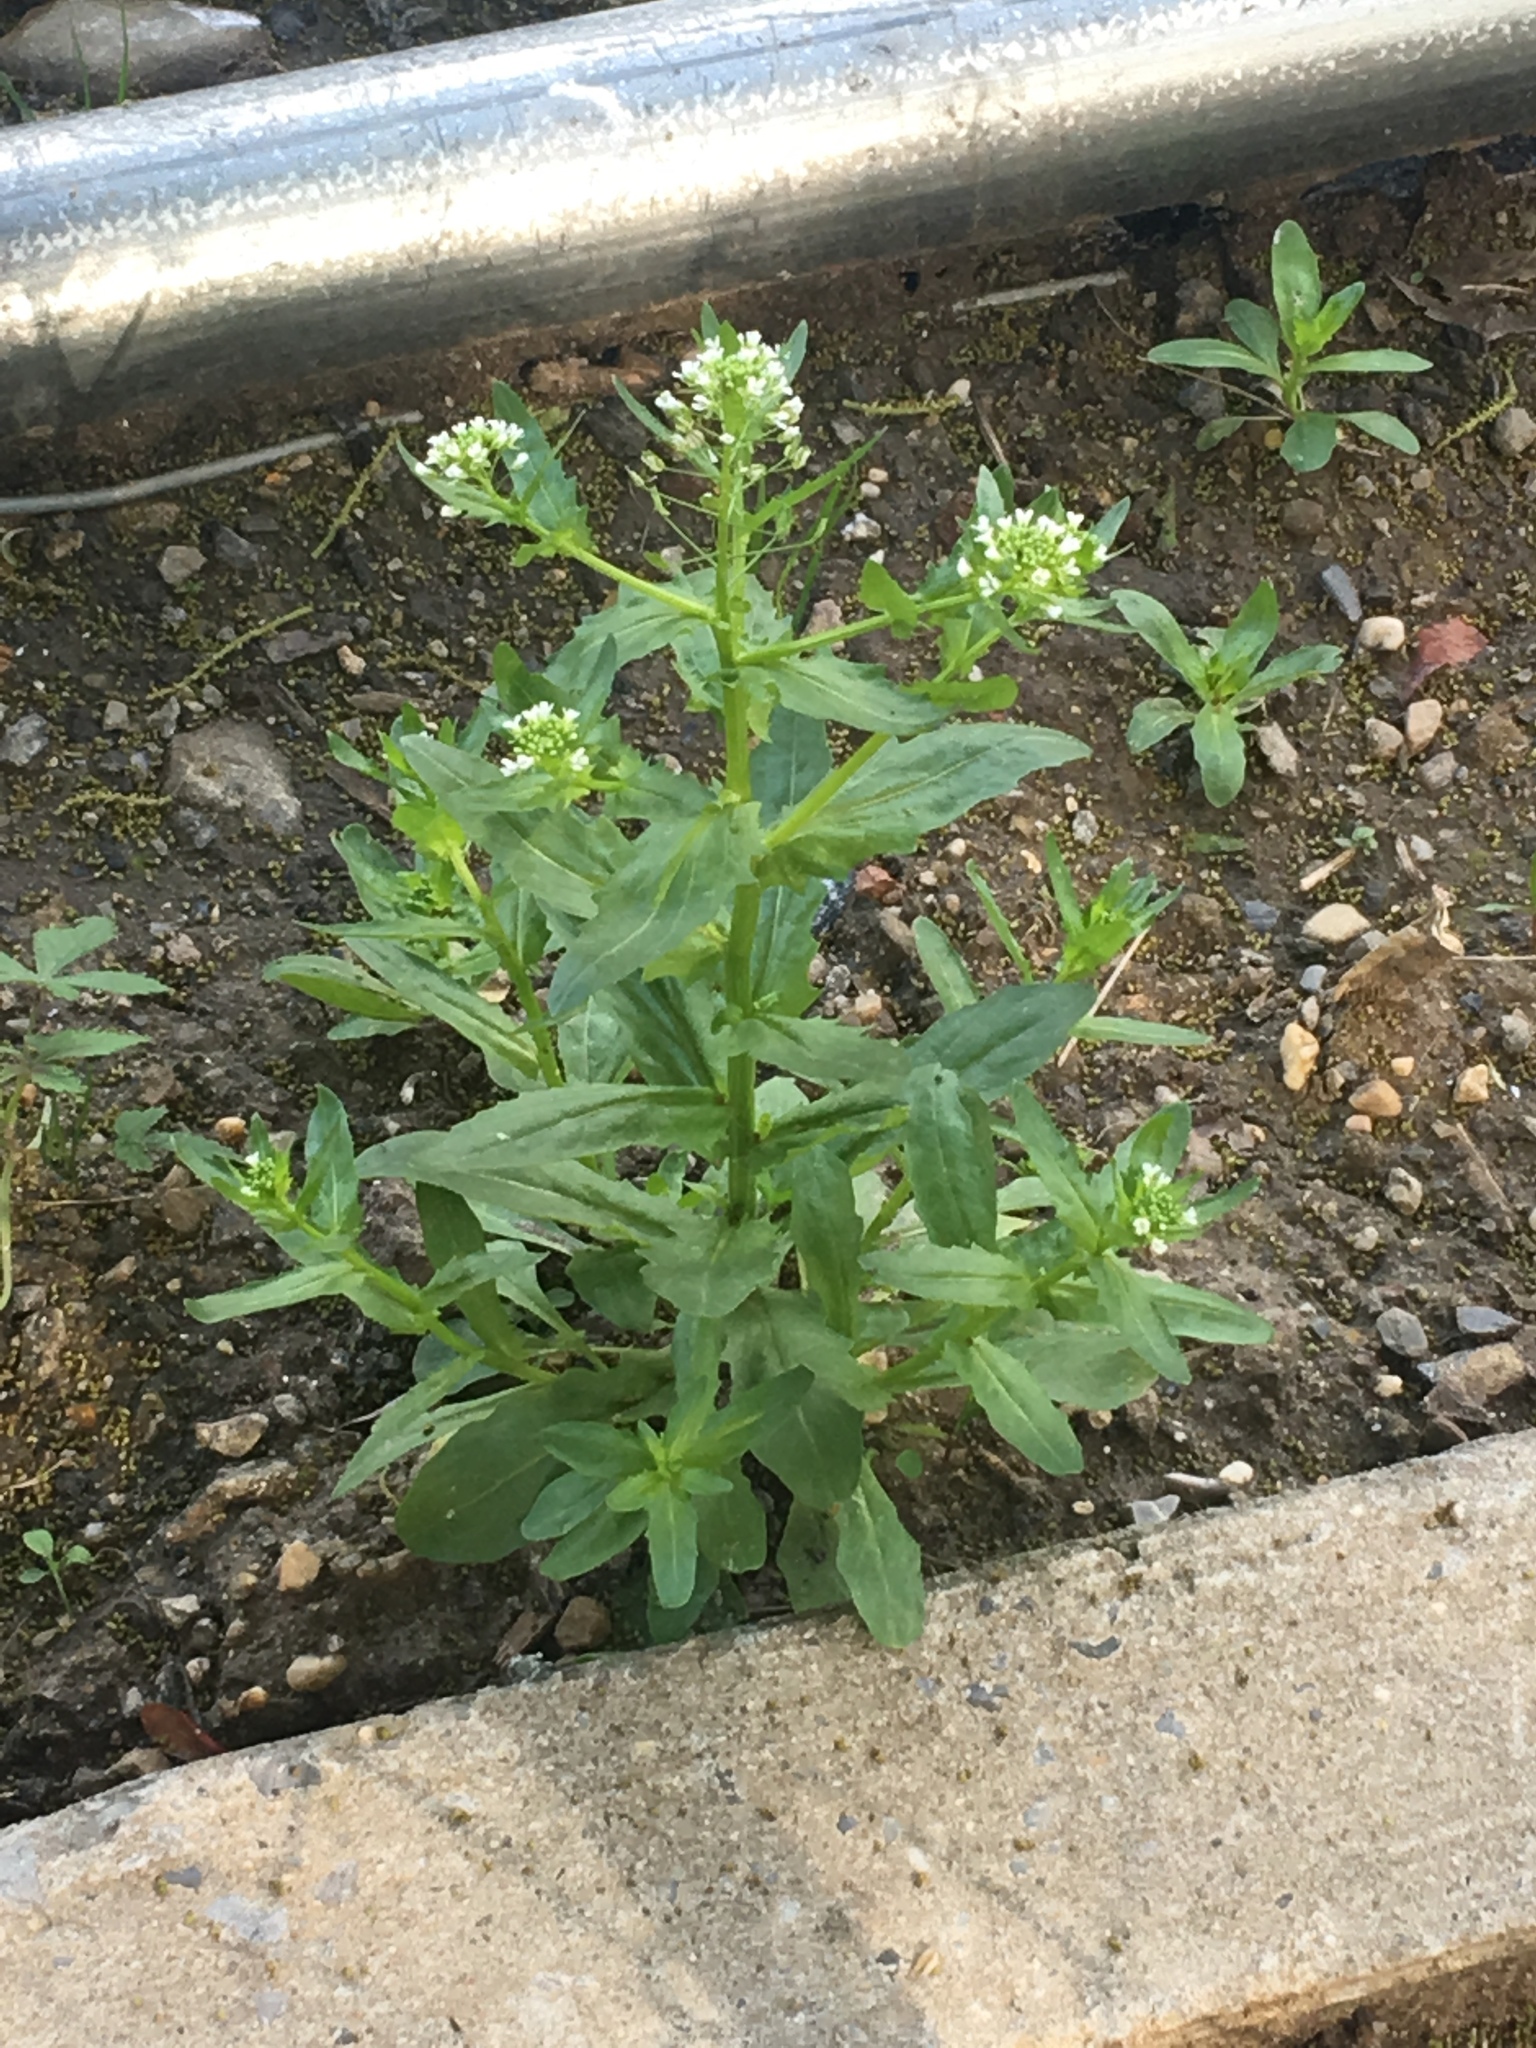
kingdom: Plantae
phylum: Tracheophyta
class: Magnoliopsida
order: Brassicales
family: Brassicaceae
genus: Thlaspi
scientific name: Thlaspi arvense
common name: Field pennycress
